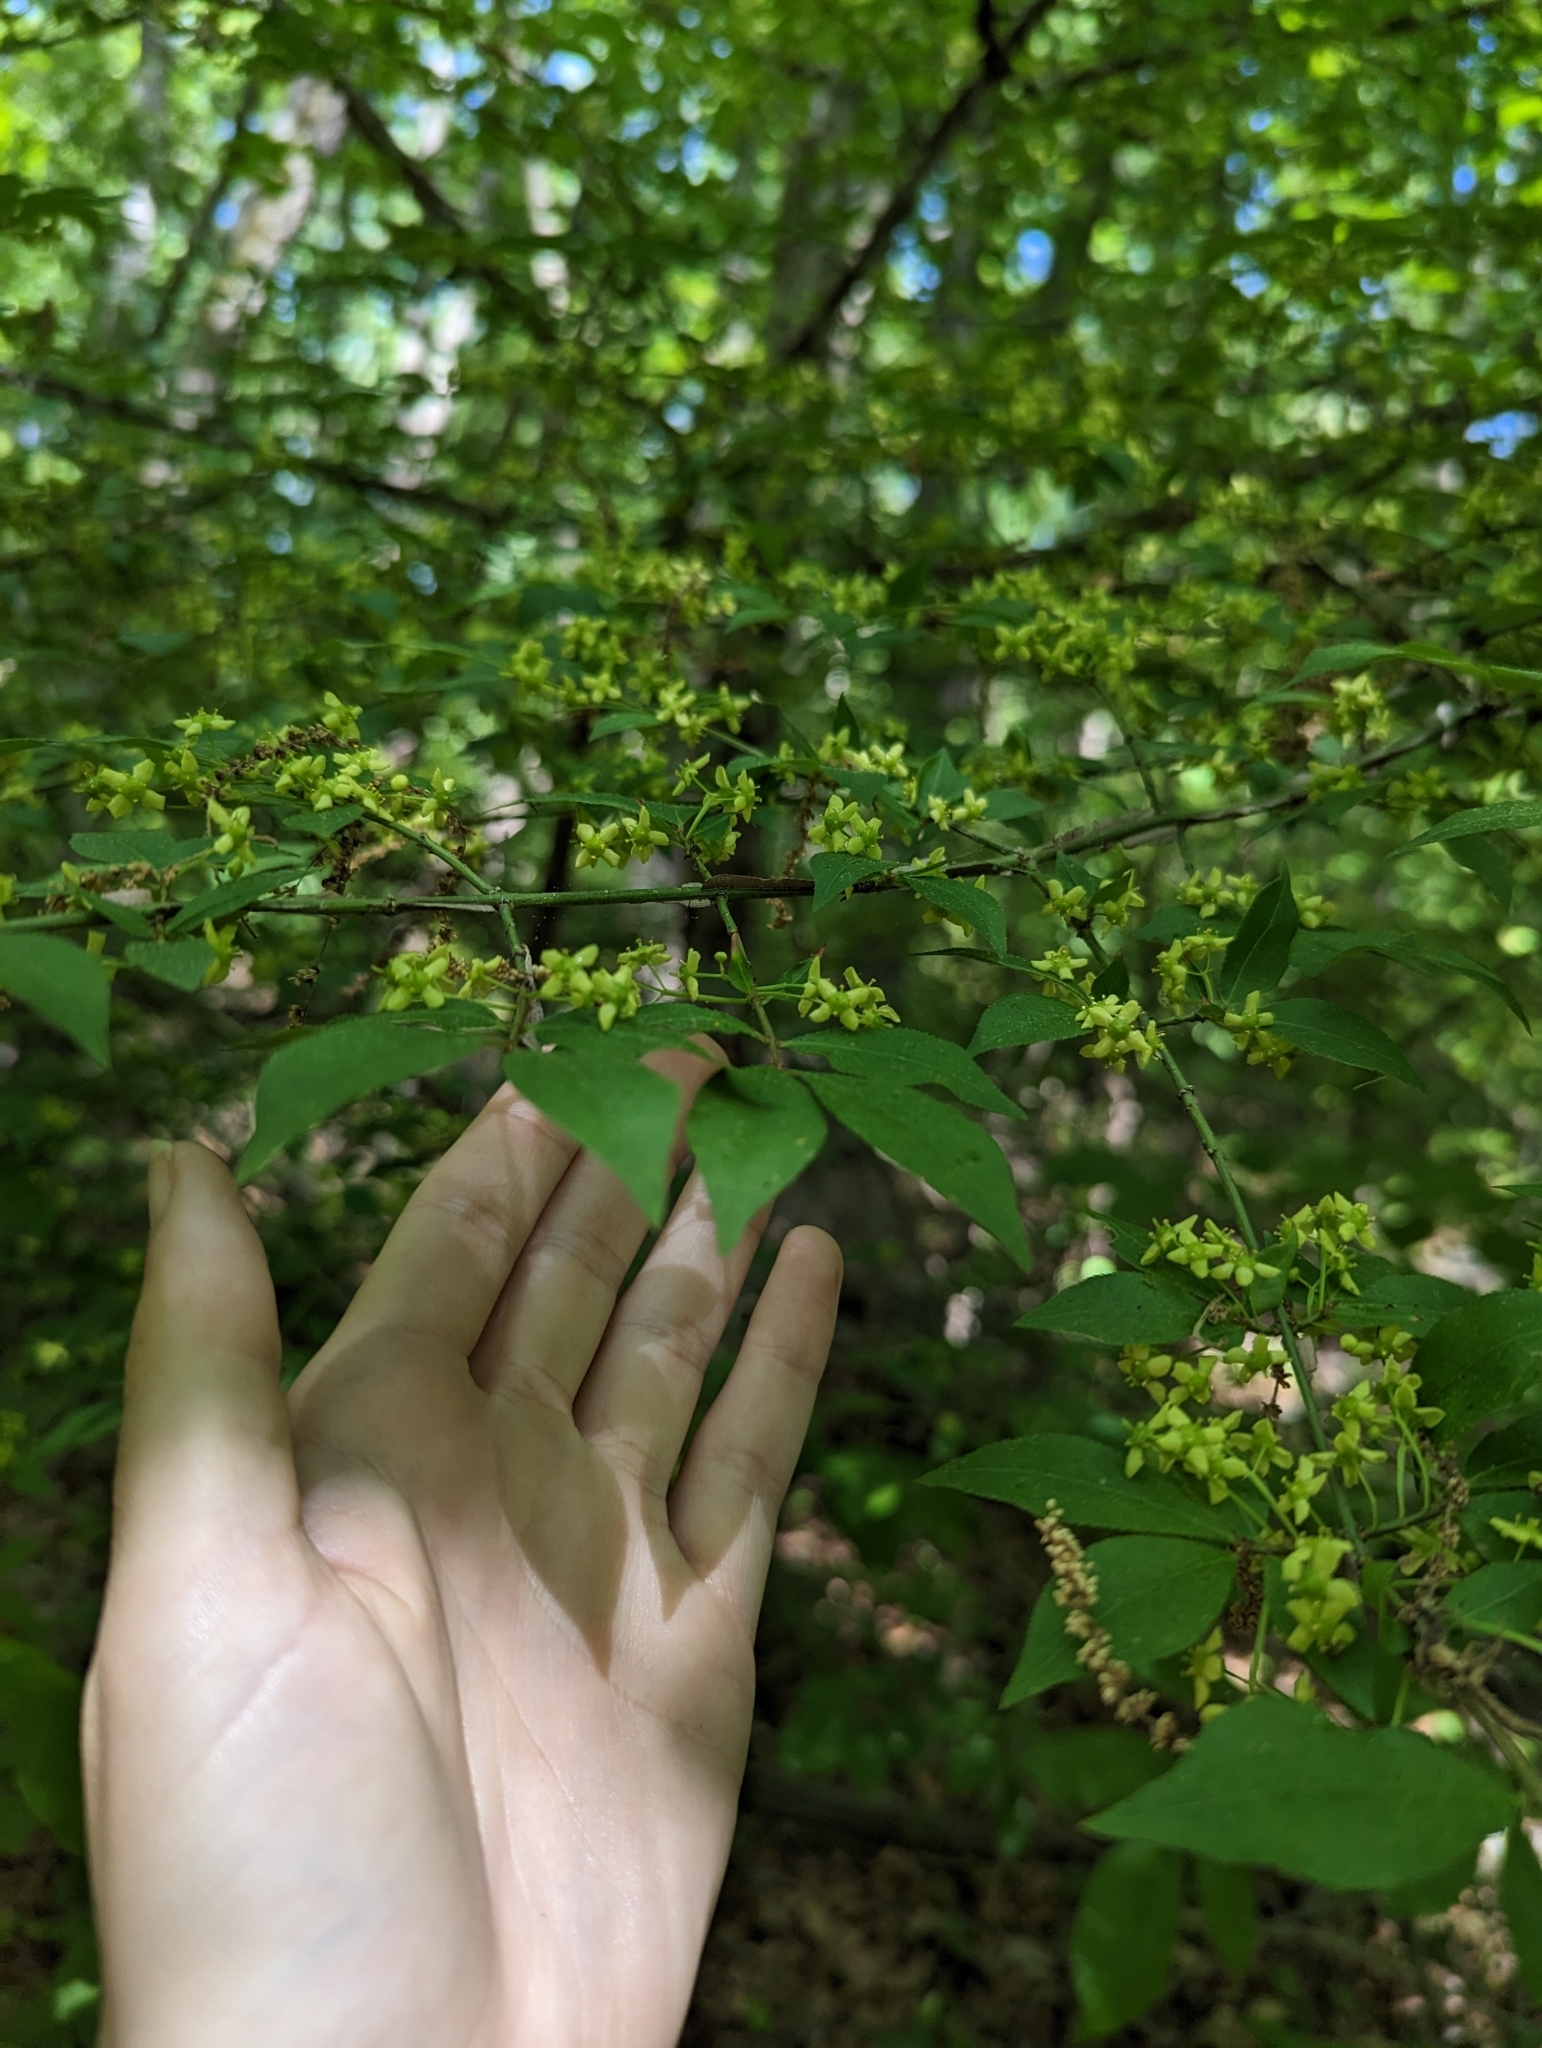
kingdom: Plantae
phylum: Tracheophyta
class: Magnoliopsida
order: Celastrales
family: Celastraceae
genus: Euonymus
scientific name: Euonymus alatus
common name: Winged euonymus
